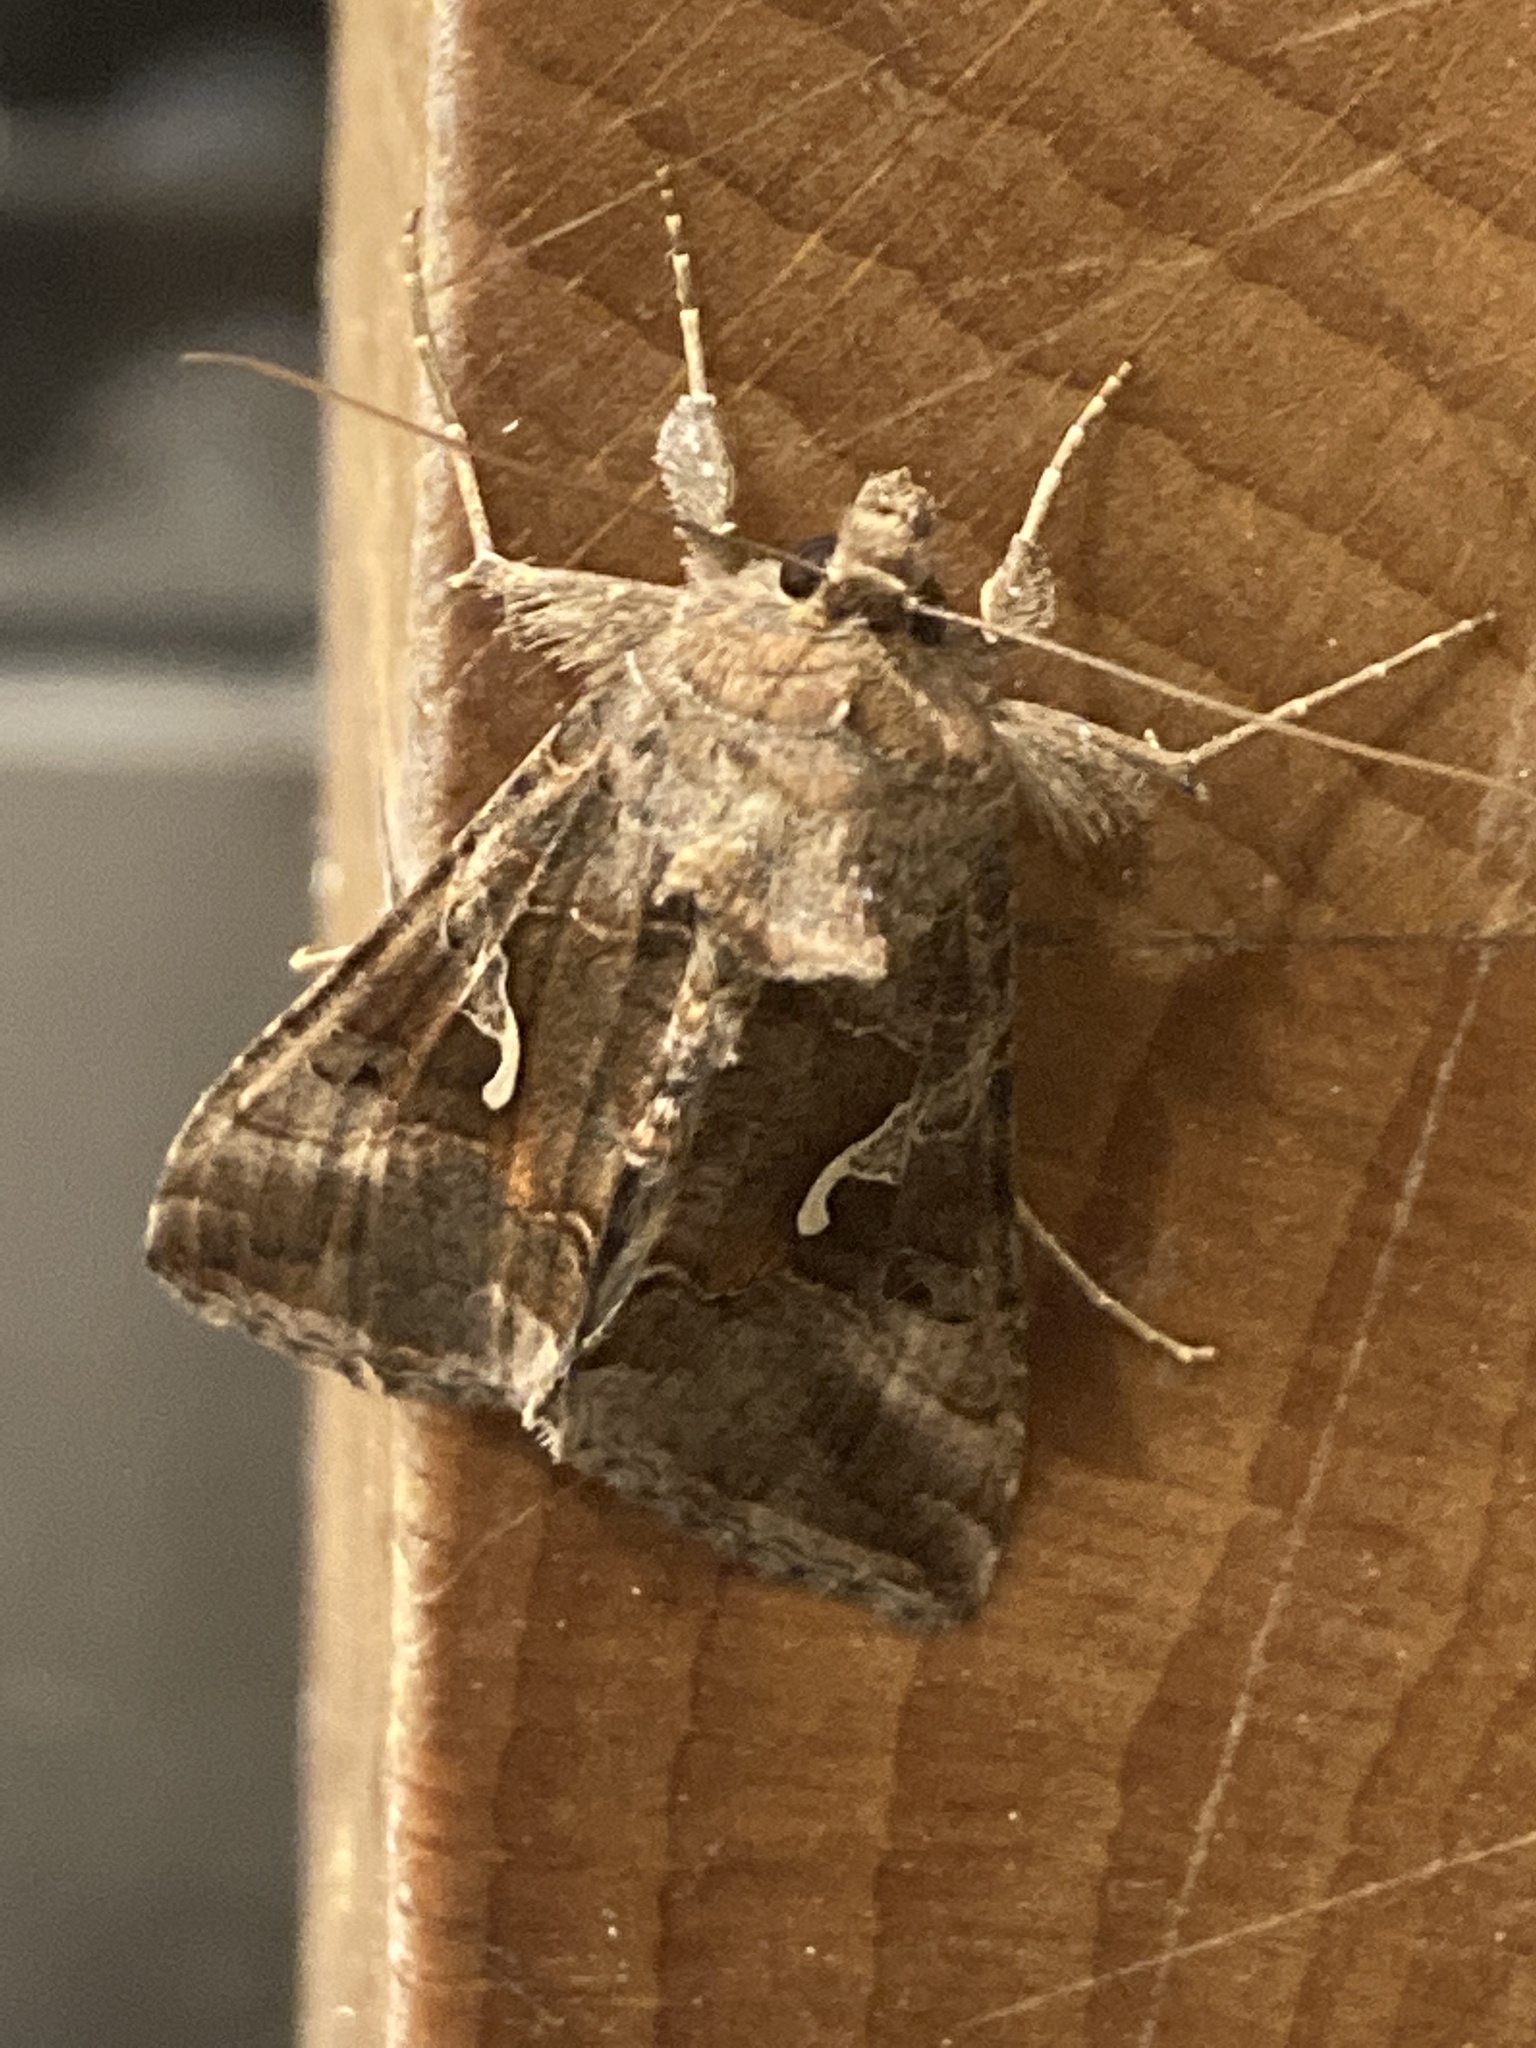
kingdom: Animalia
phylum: Arthropoda
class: Insecta
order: Lepidoptera
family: Noctuidae
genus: Autographa
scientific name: Autographa gamma
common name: Silver y
